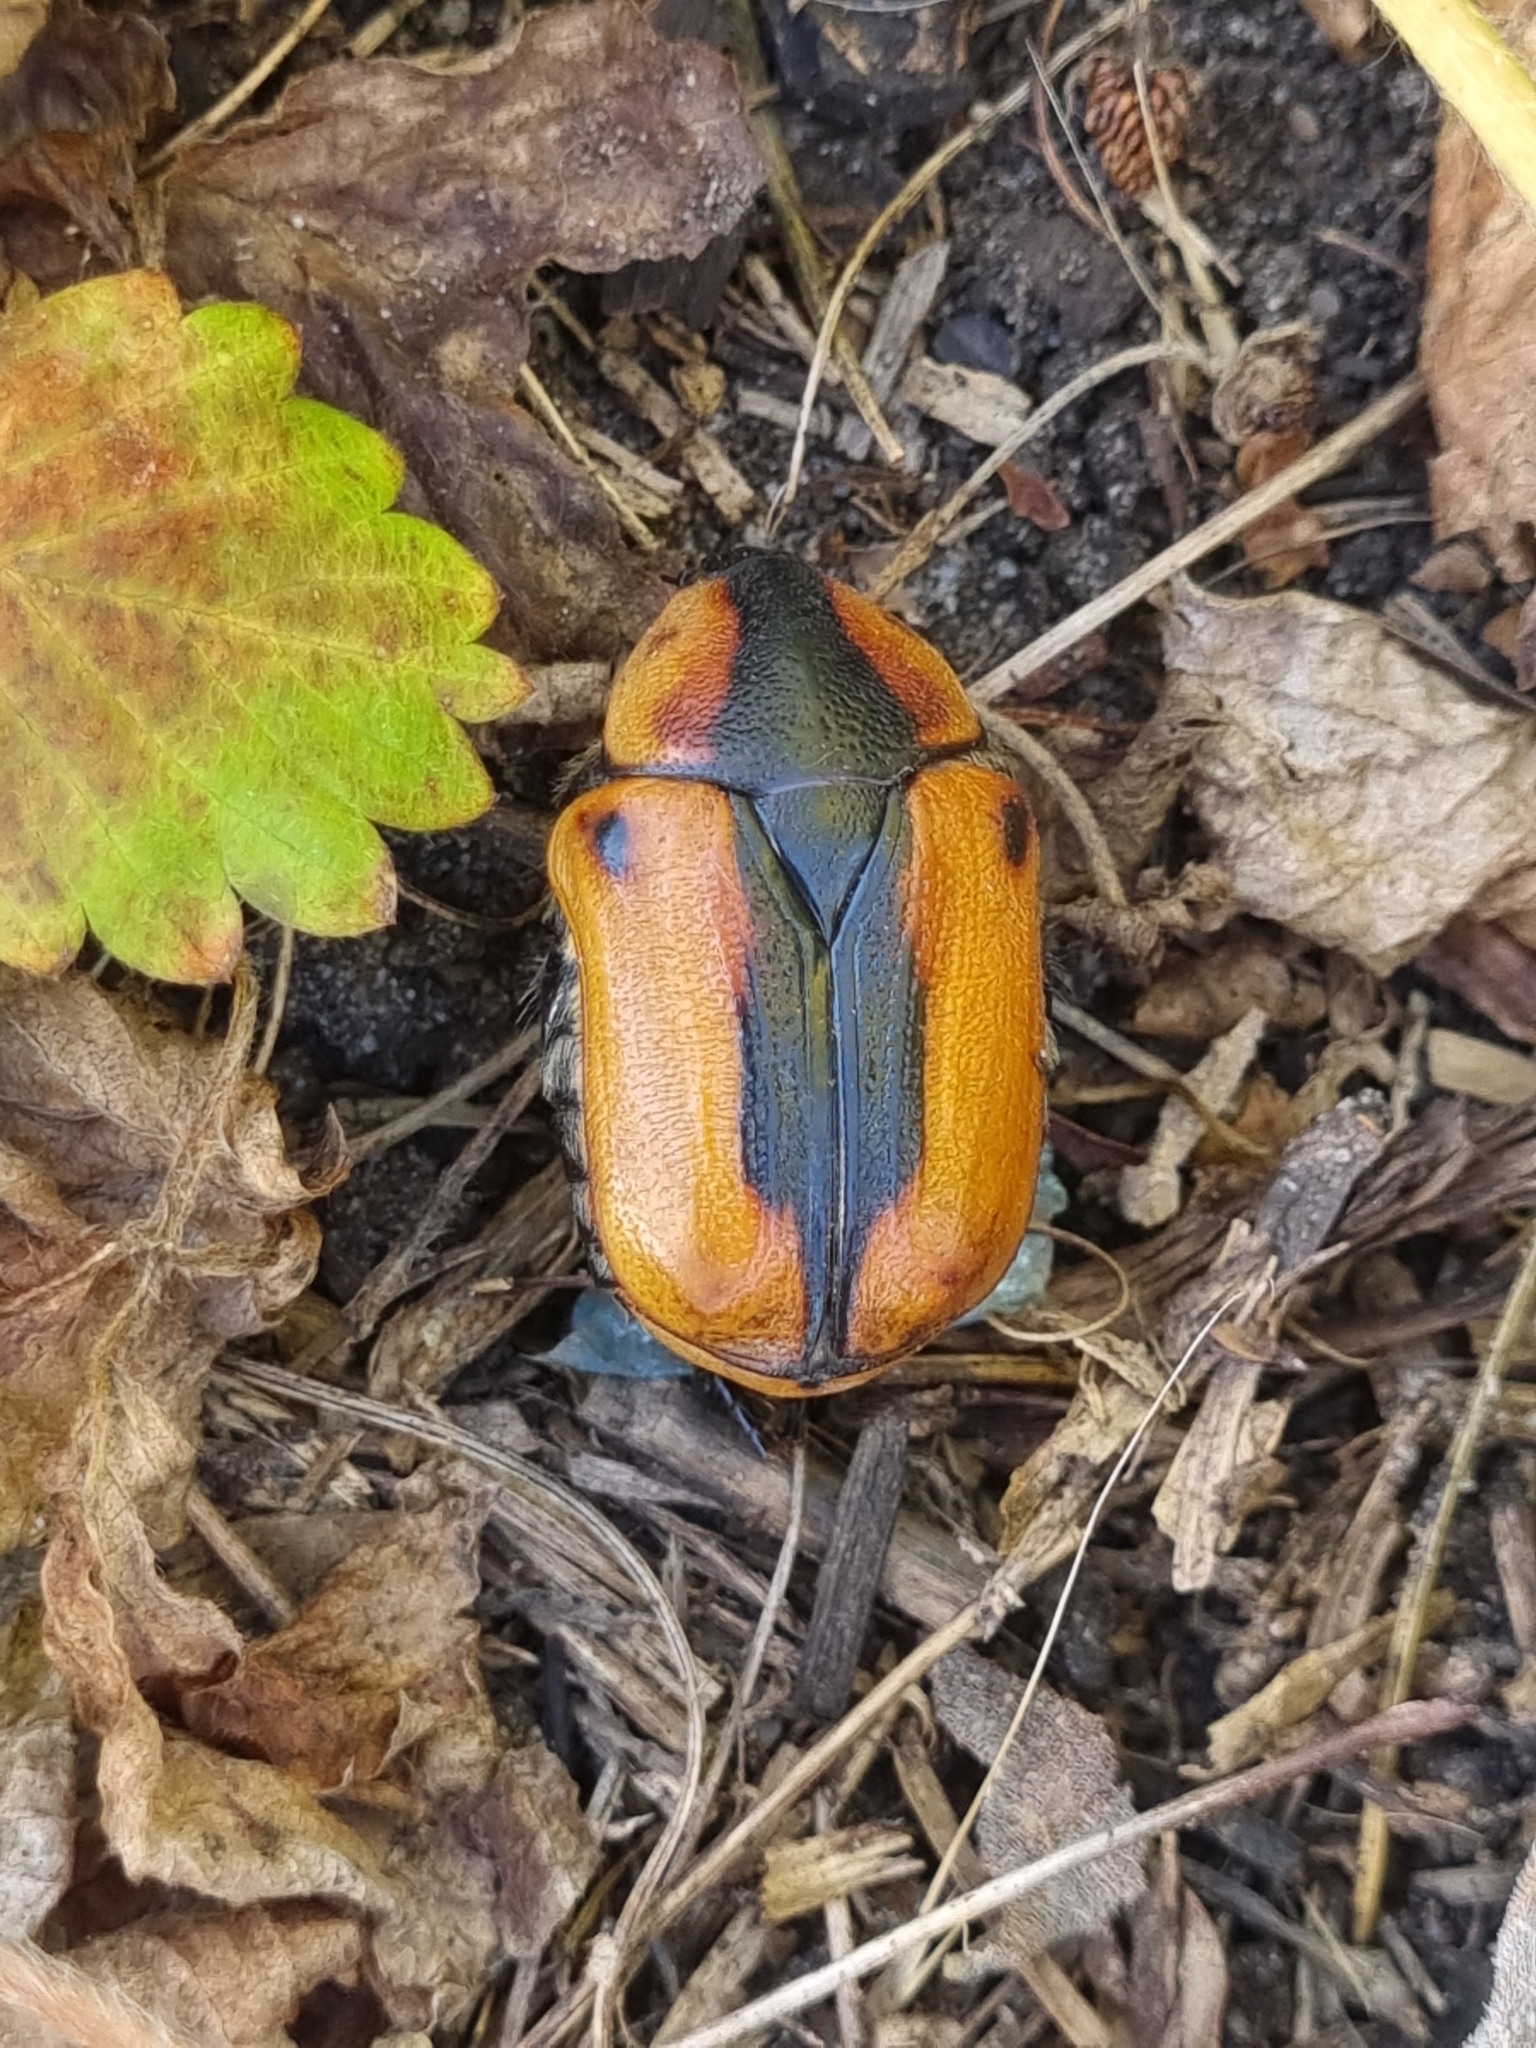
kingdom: Animalia
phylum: Arthropoda
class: Insecta
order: Coleoptera
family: Scarabaeidae
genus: Chondropyga
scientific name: Chondropyga dorsalis
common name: Cowboy beetle
